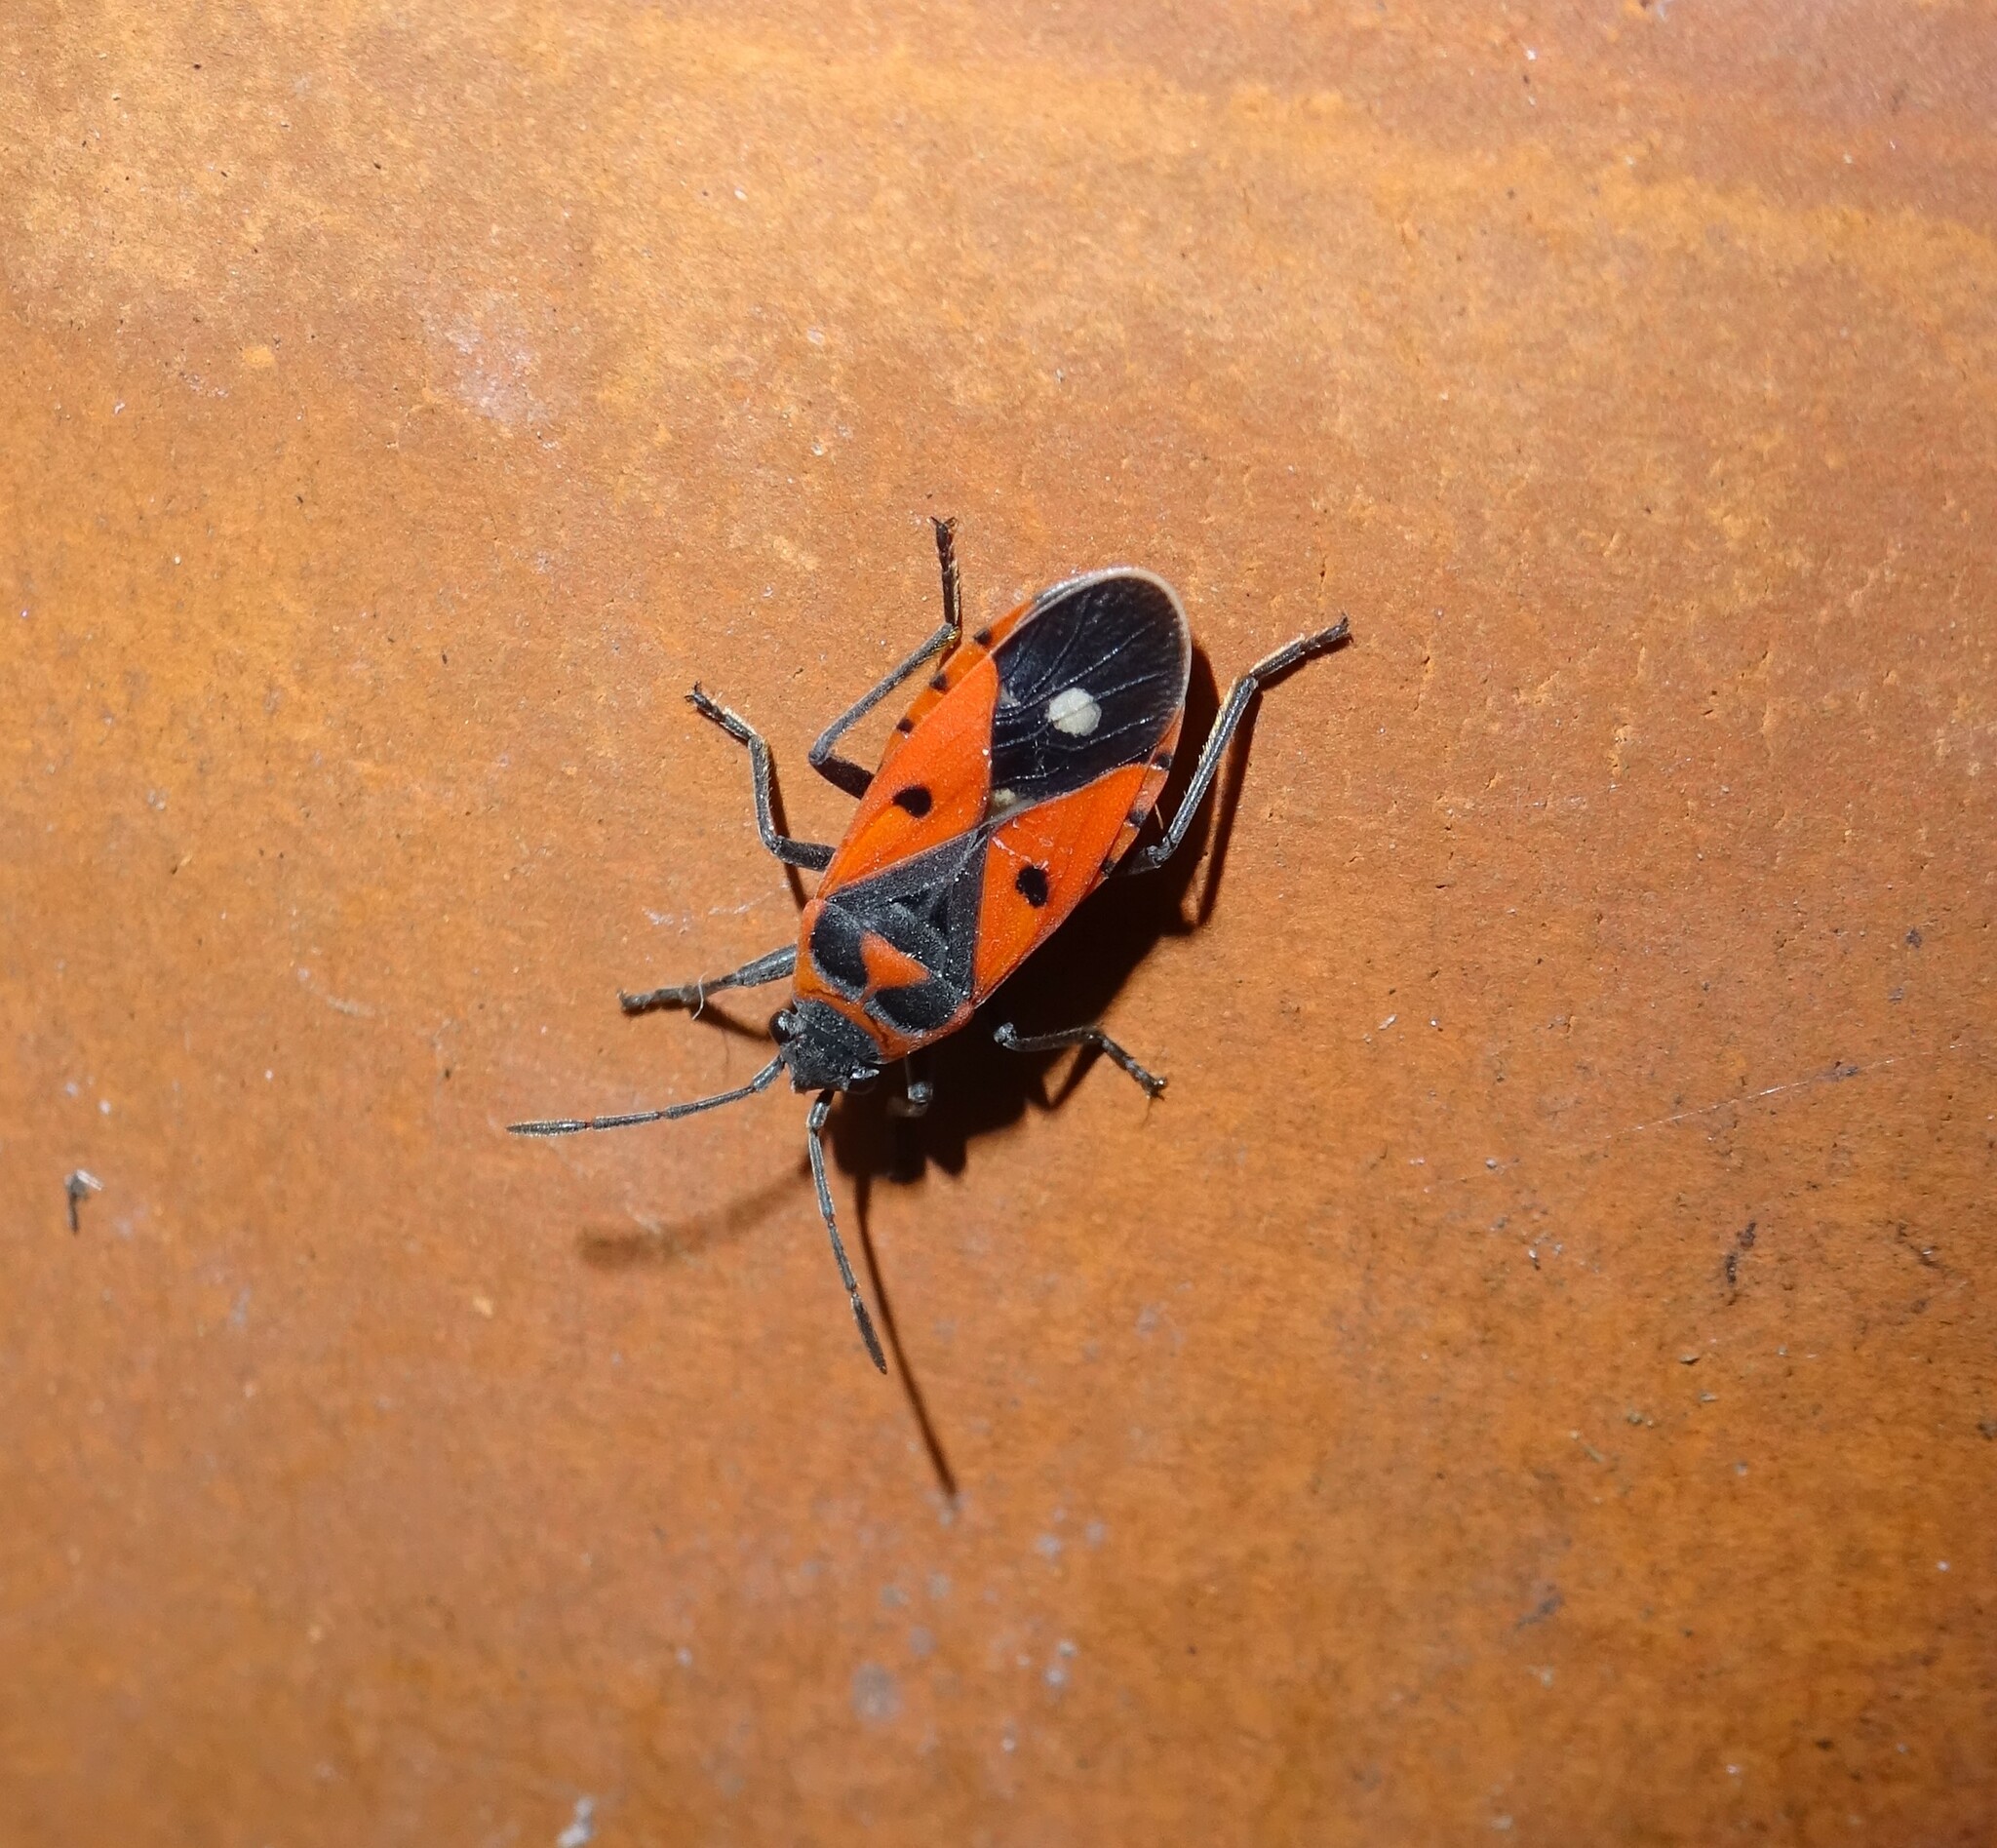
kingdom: Animalia
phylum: Arthropoda
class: Insecta
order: Hemiptera
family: Lygaeidae
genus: Melanocoryphus
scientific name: Melanocoryphus albomaculatus
